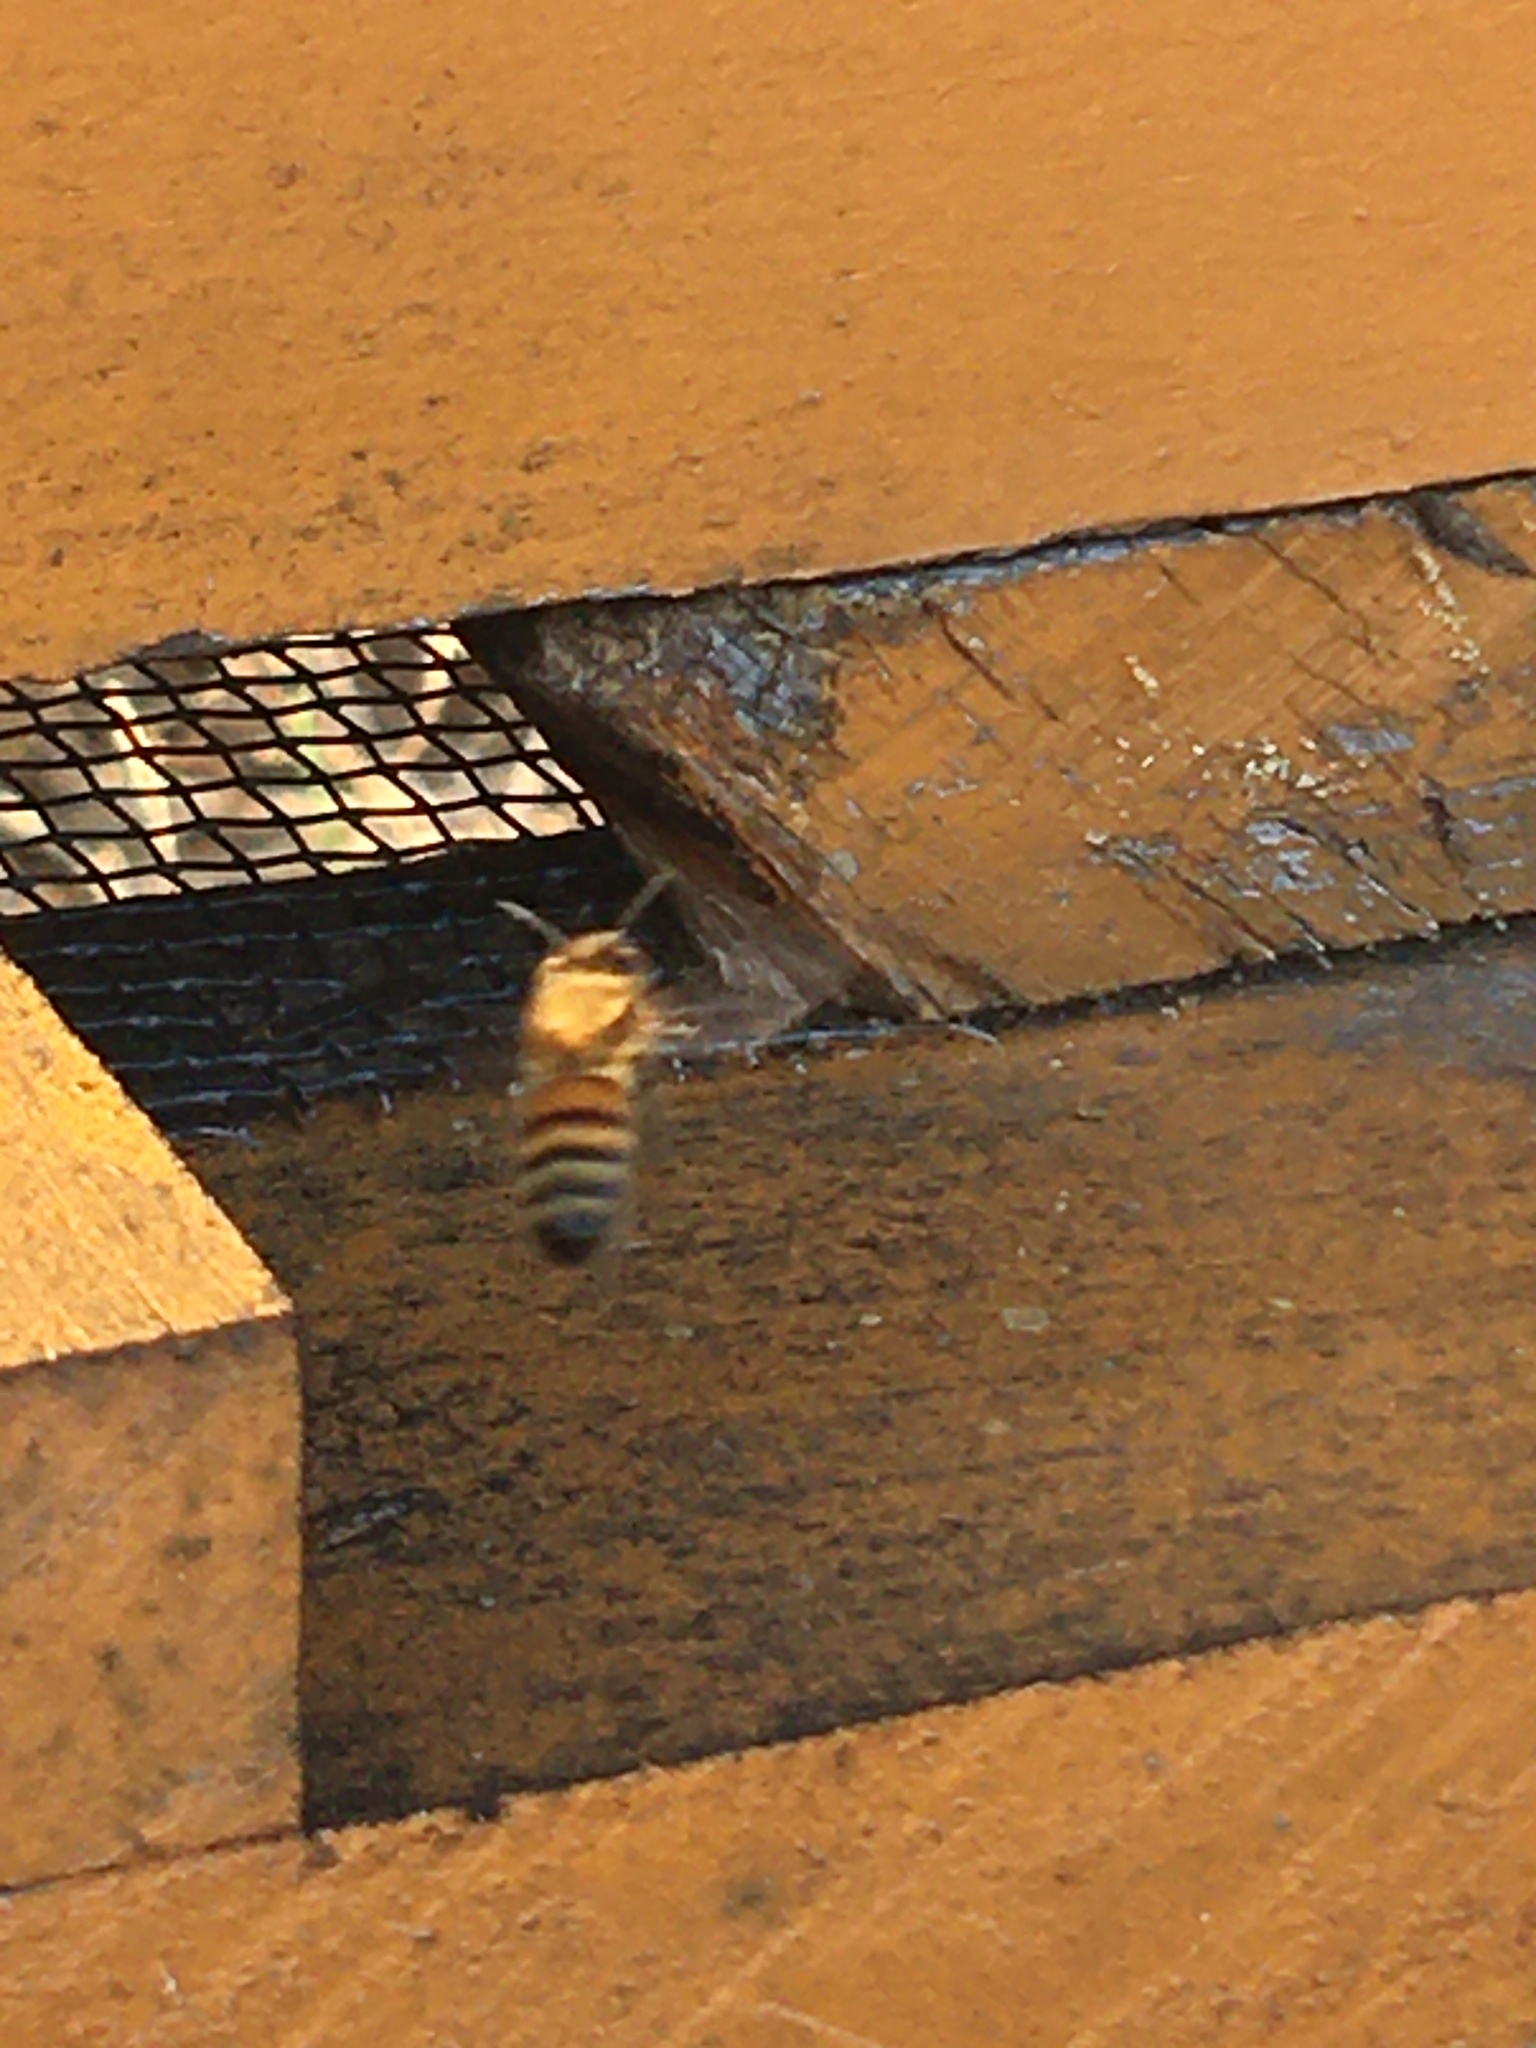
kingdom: Animalia
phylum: Arthropoda
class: Insecta
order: Hymenoptera
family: Apidae
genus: Apis
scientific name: Apis mellifera
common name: Honey bee
